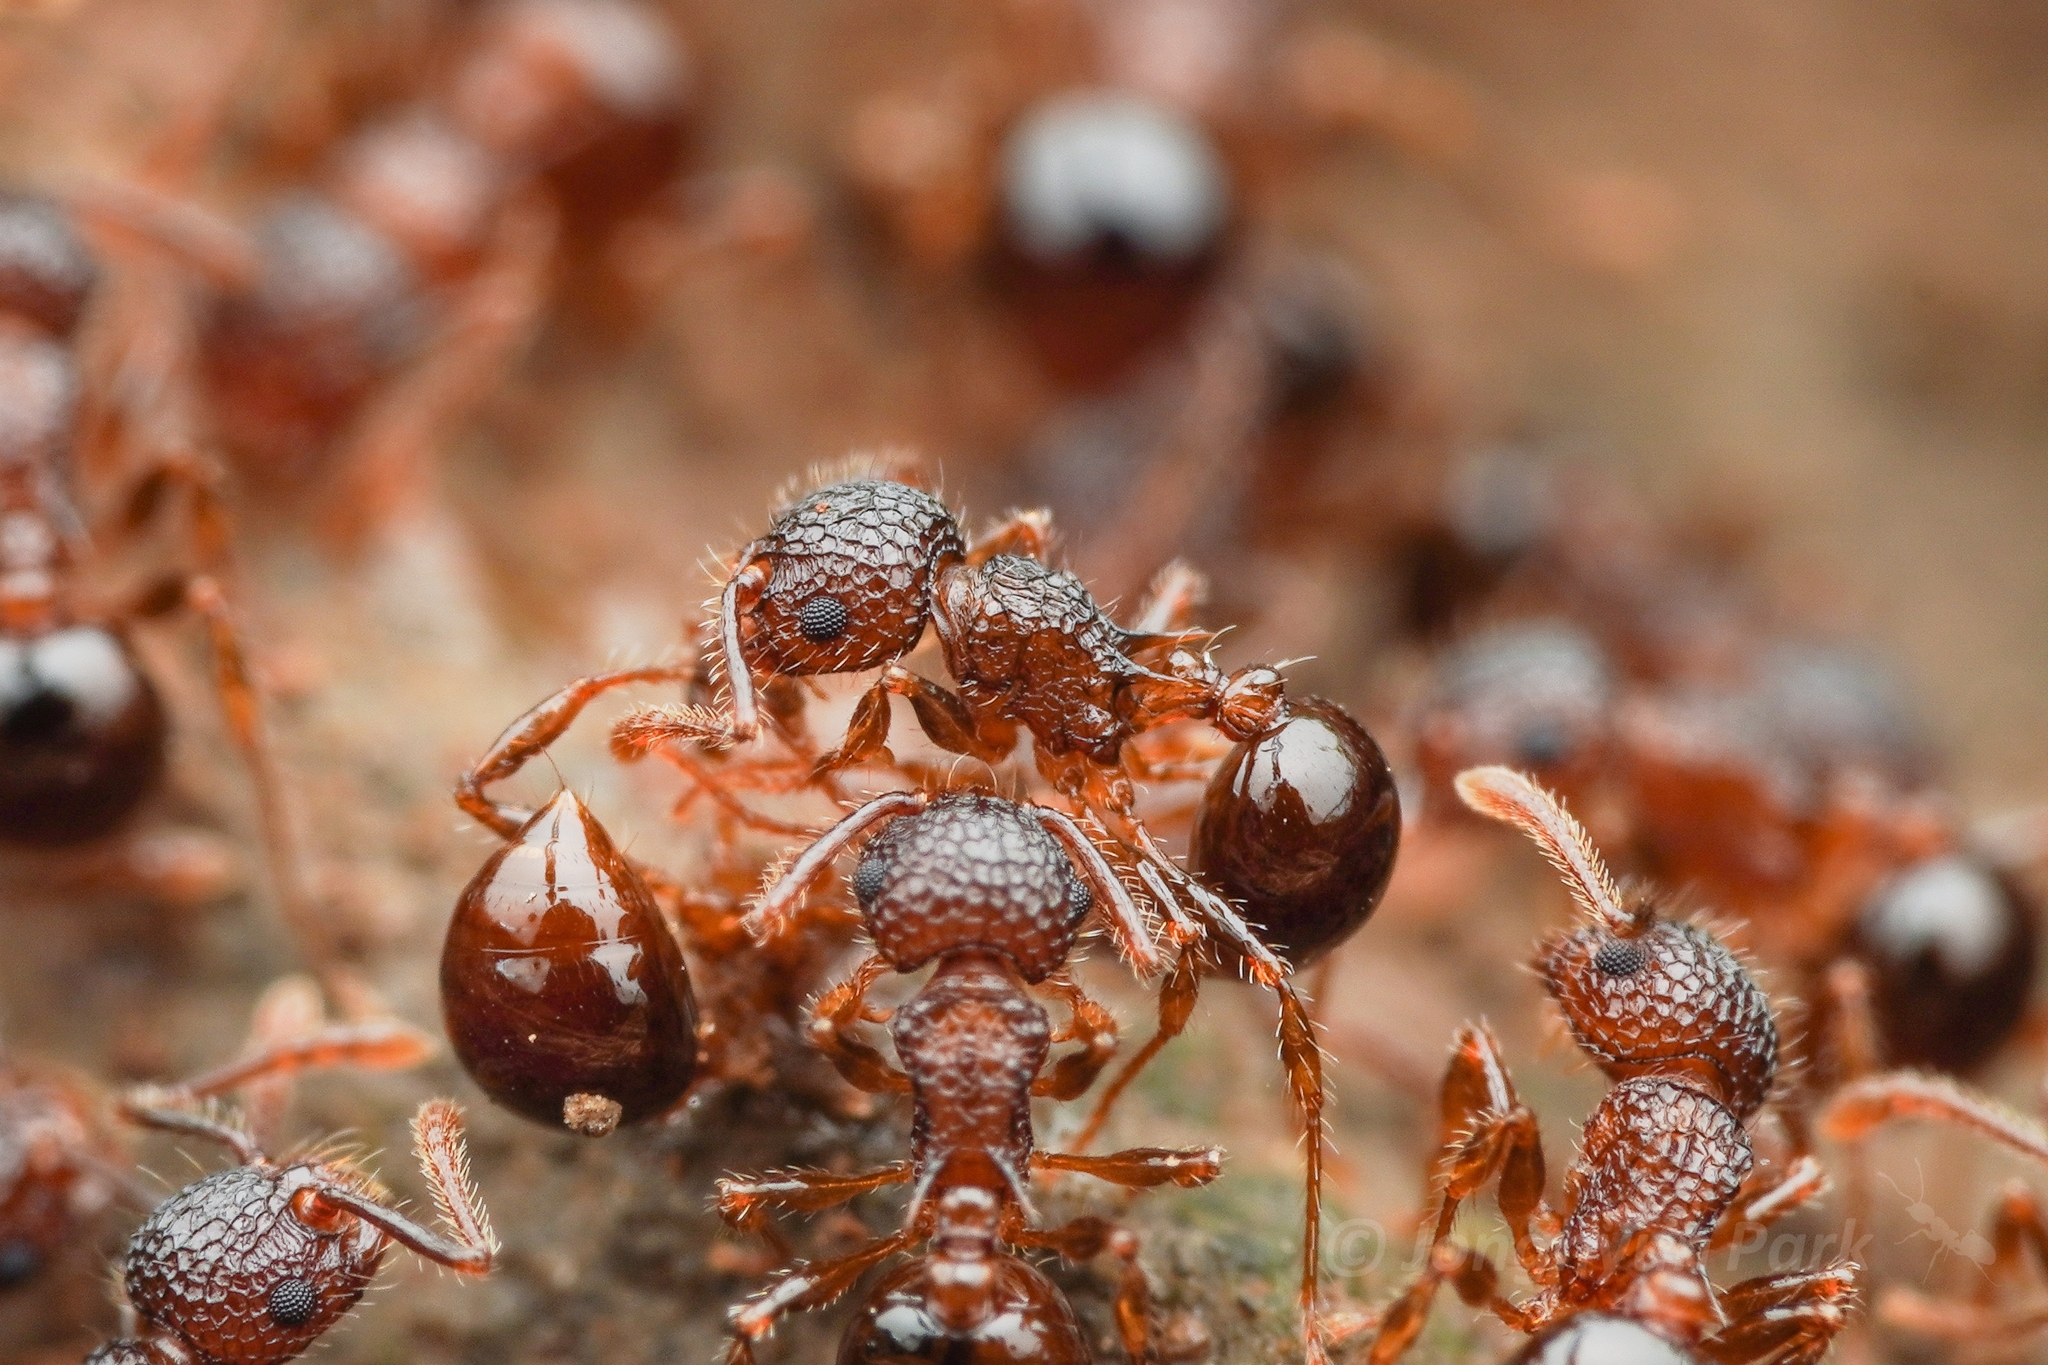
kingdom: Animalia
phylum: Arthropoda
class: Insecta
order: Hymenoptera
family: Formicidae
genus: Pristomyrmex
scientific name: Pristomyrmex punctatus
